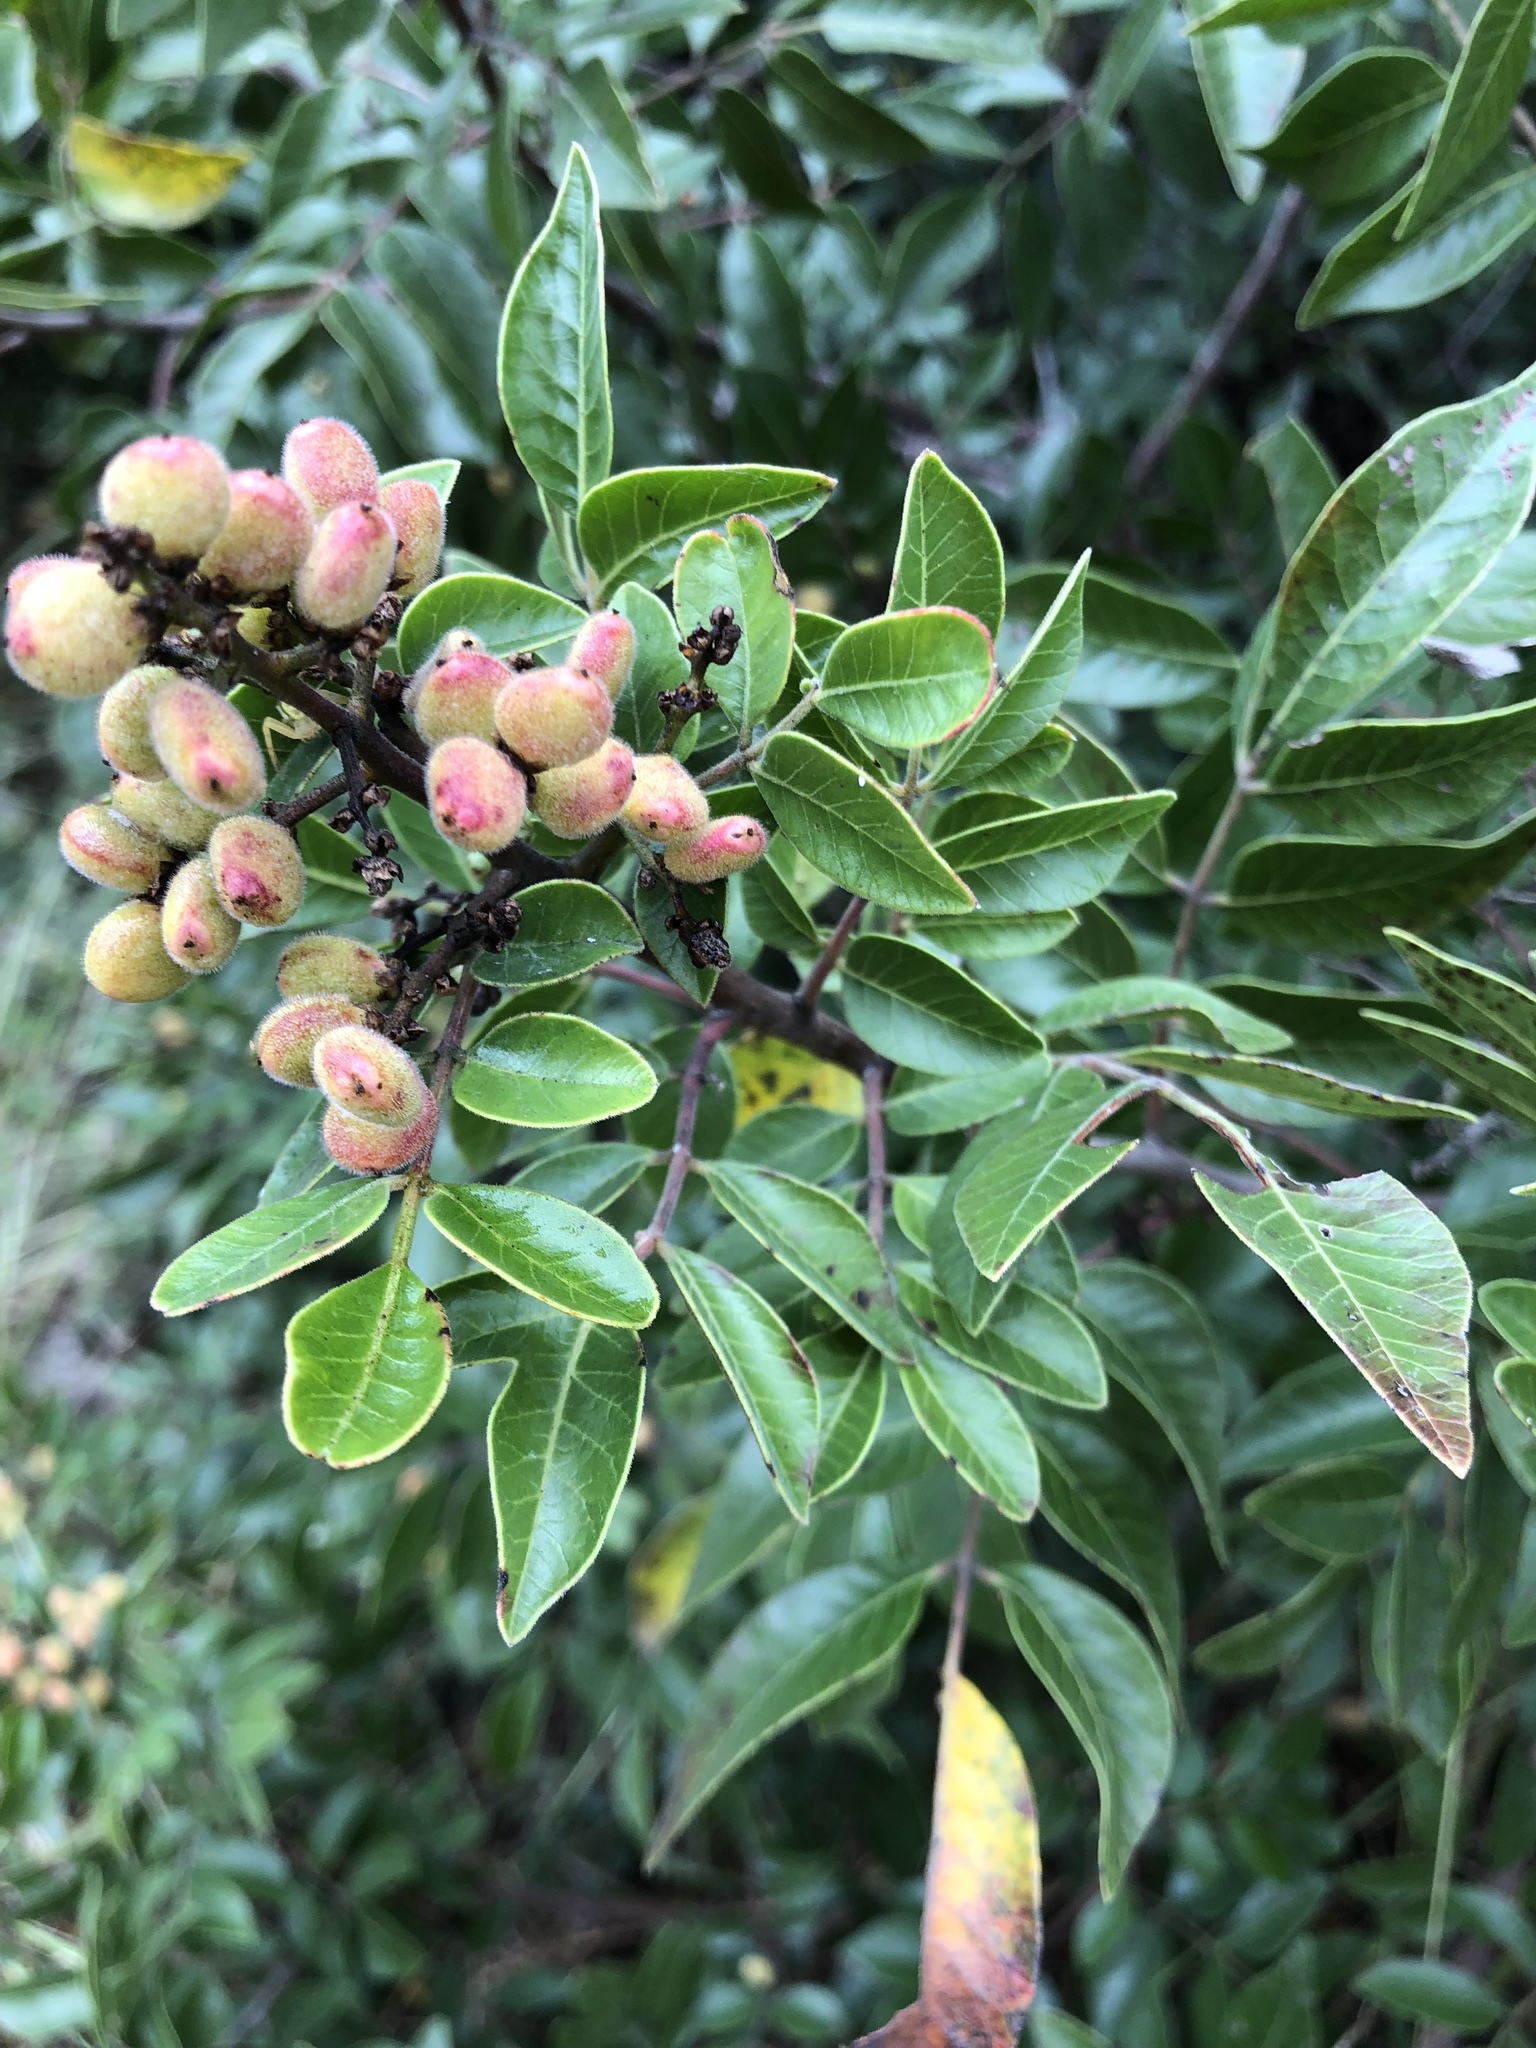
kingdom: Plantae
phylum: Tracheophyta
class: Magnoliopsida
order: Sapindales
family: Anacardiaceae
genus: Rhus
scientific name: Rhus virens
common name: Evergreen sumac
